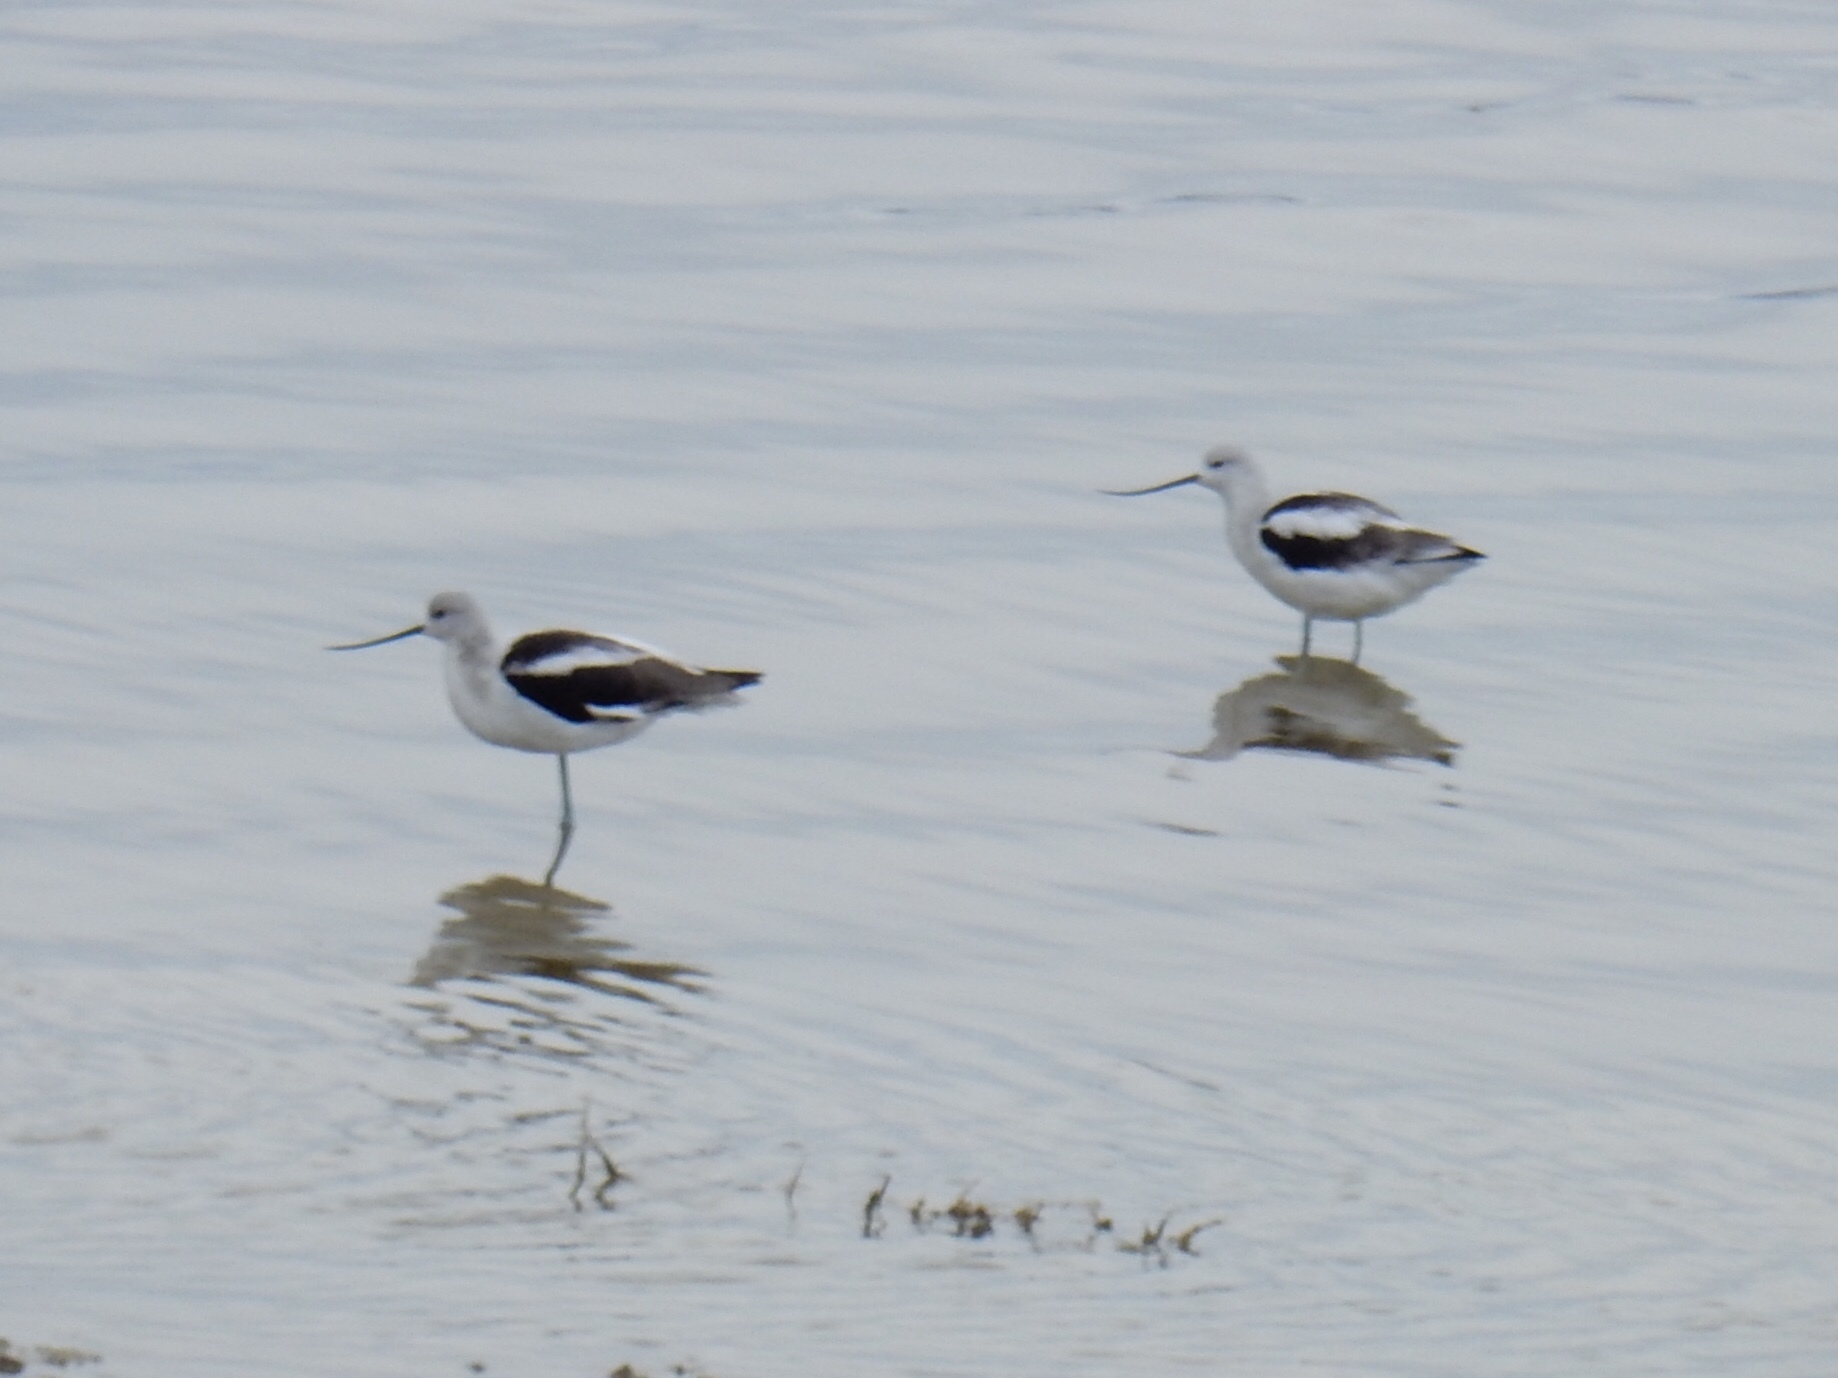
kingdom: Animalia
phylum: Chordata
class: Aves
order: Charadriiformes
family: Recurvirostridae
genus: Recurvirostra
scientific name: Recurvirostra americana
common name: American avocet
